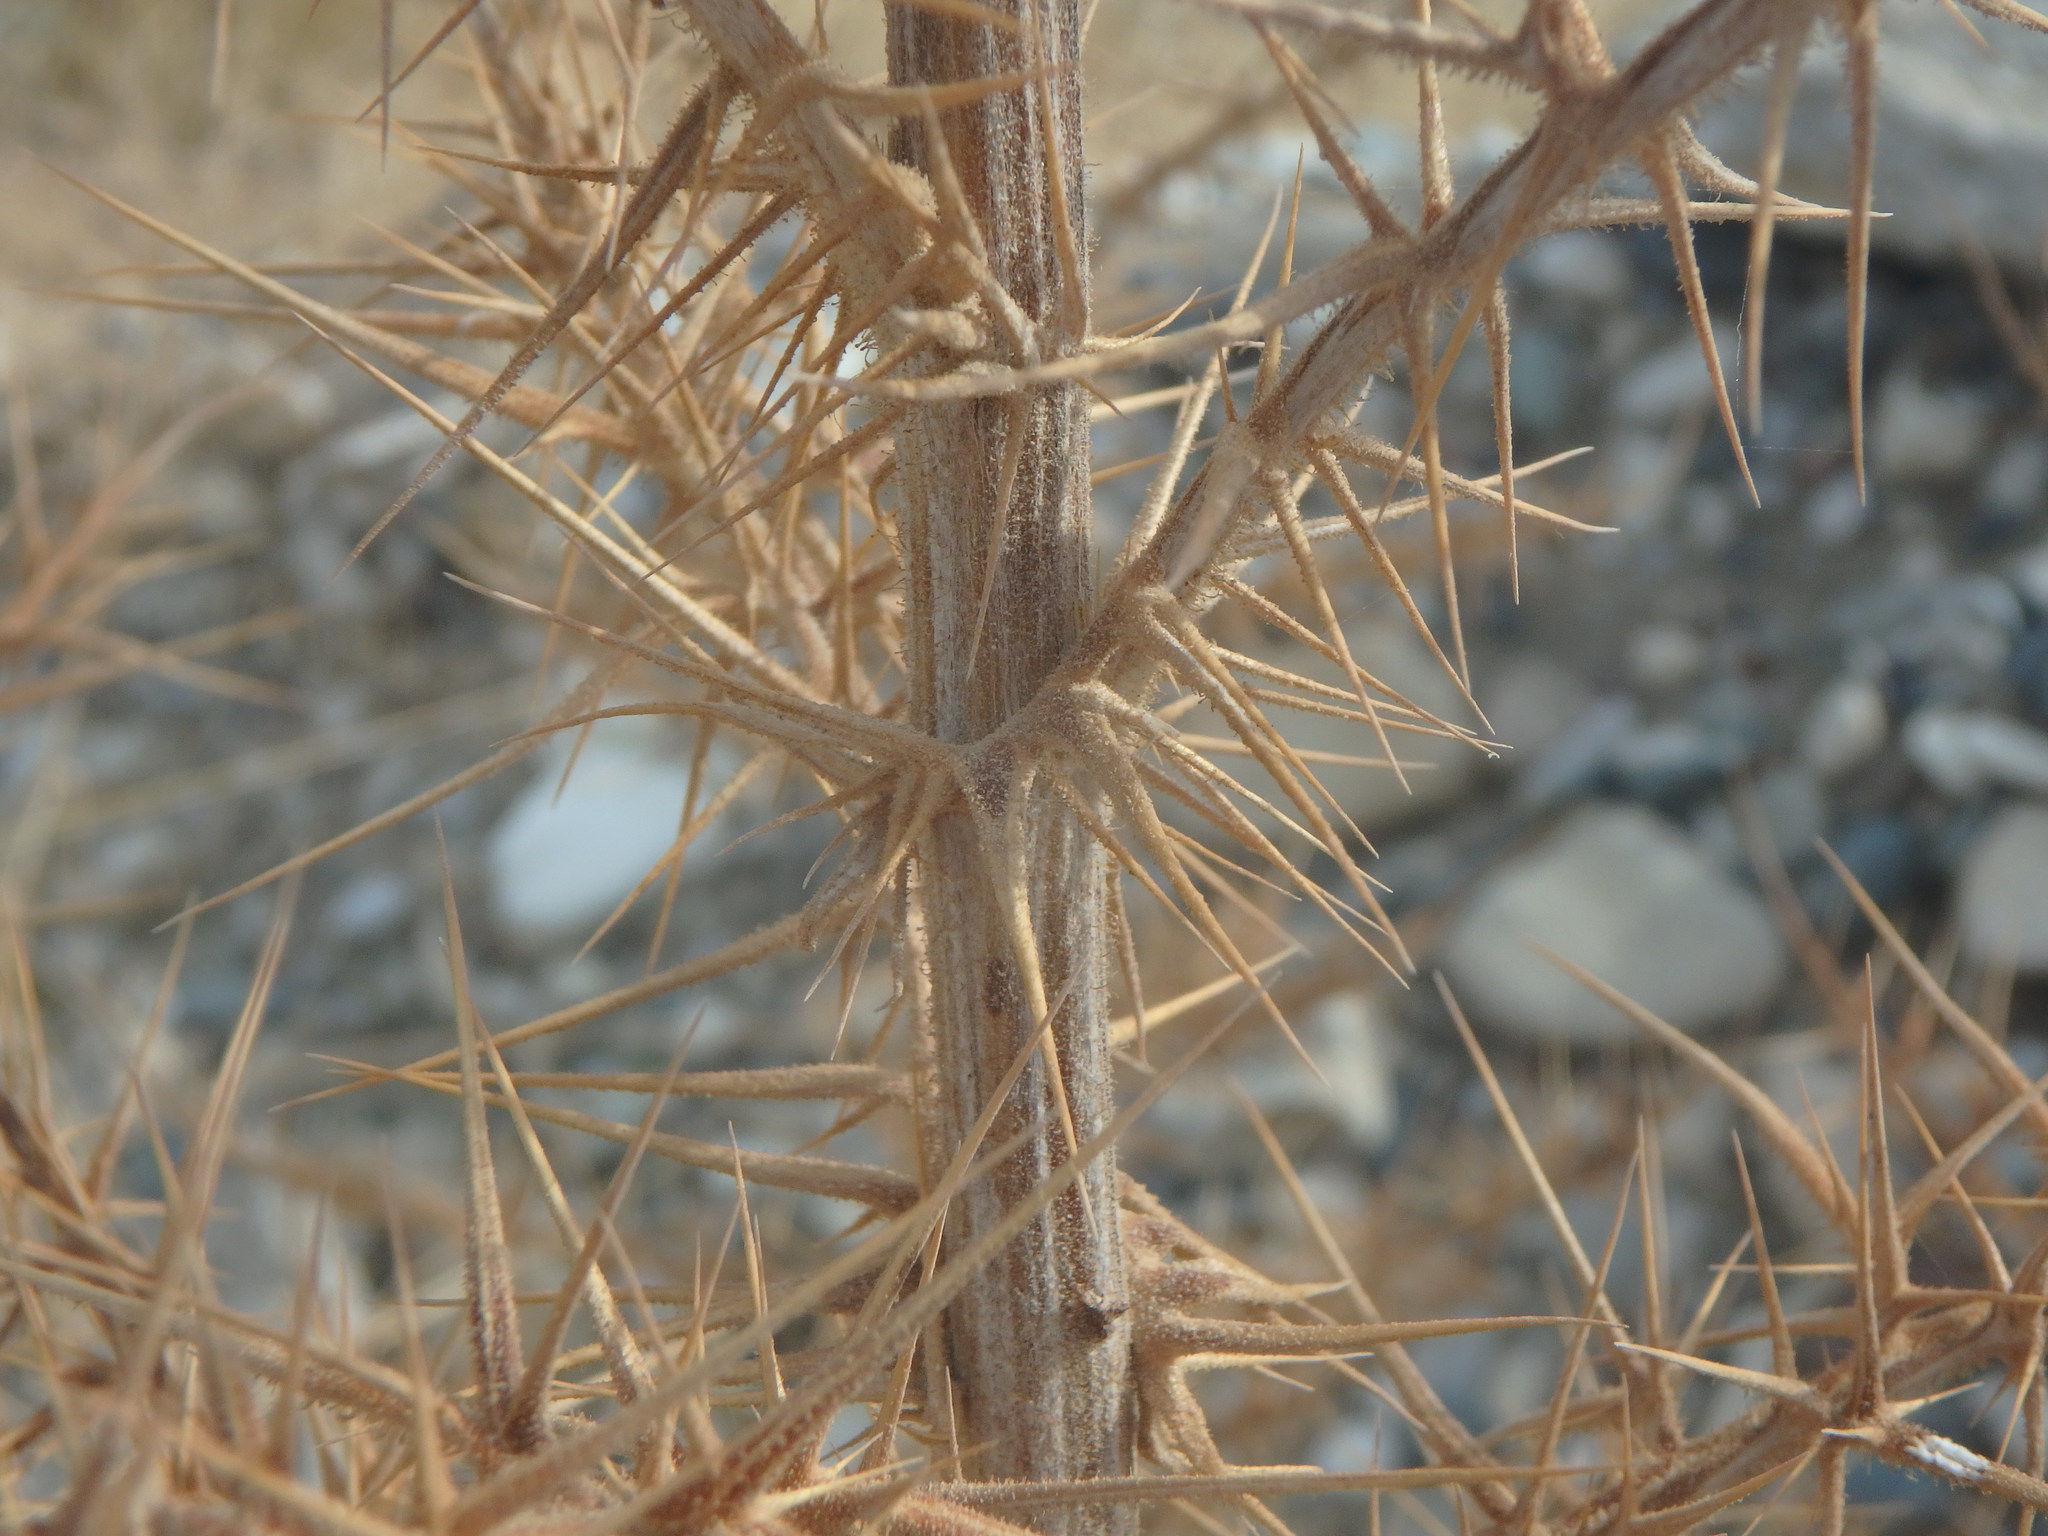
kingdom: Plantae
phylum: Tracheophyta
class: Magnoliopsida
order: Asterales
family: Asteraceae
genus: Echinops
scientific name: Echinops spinosissimus
